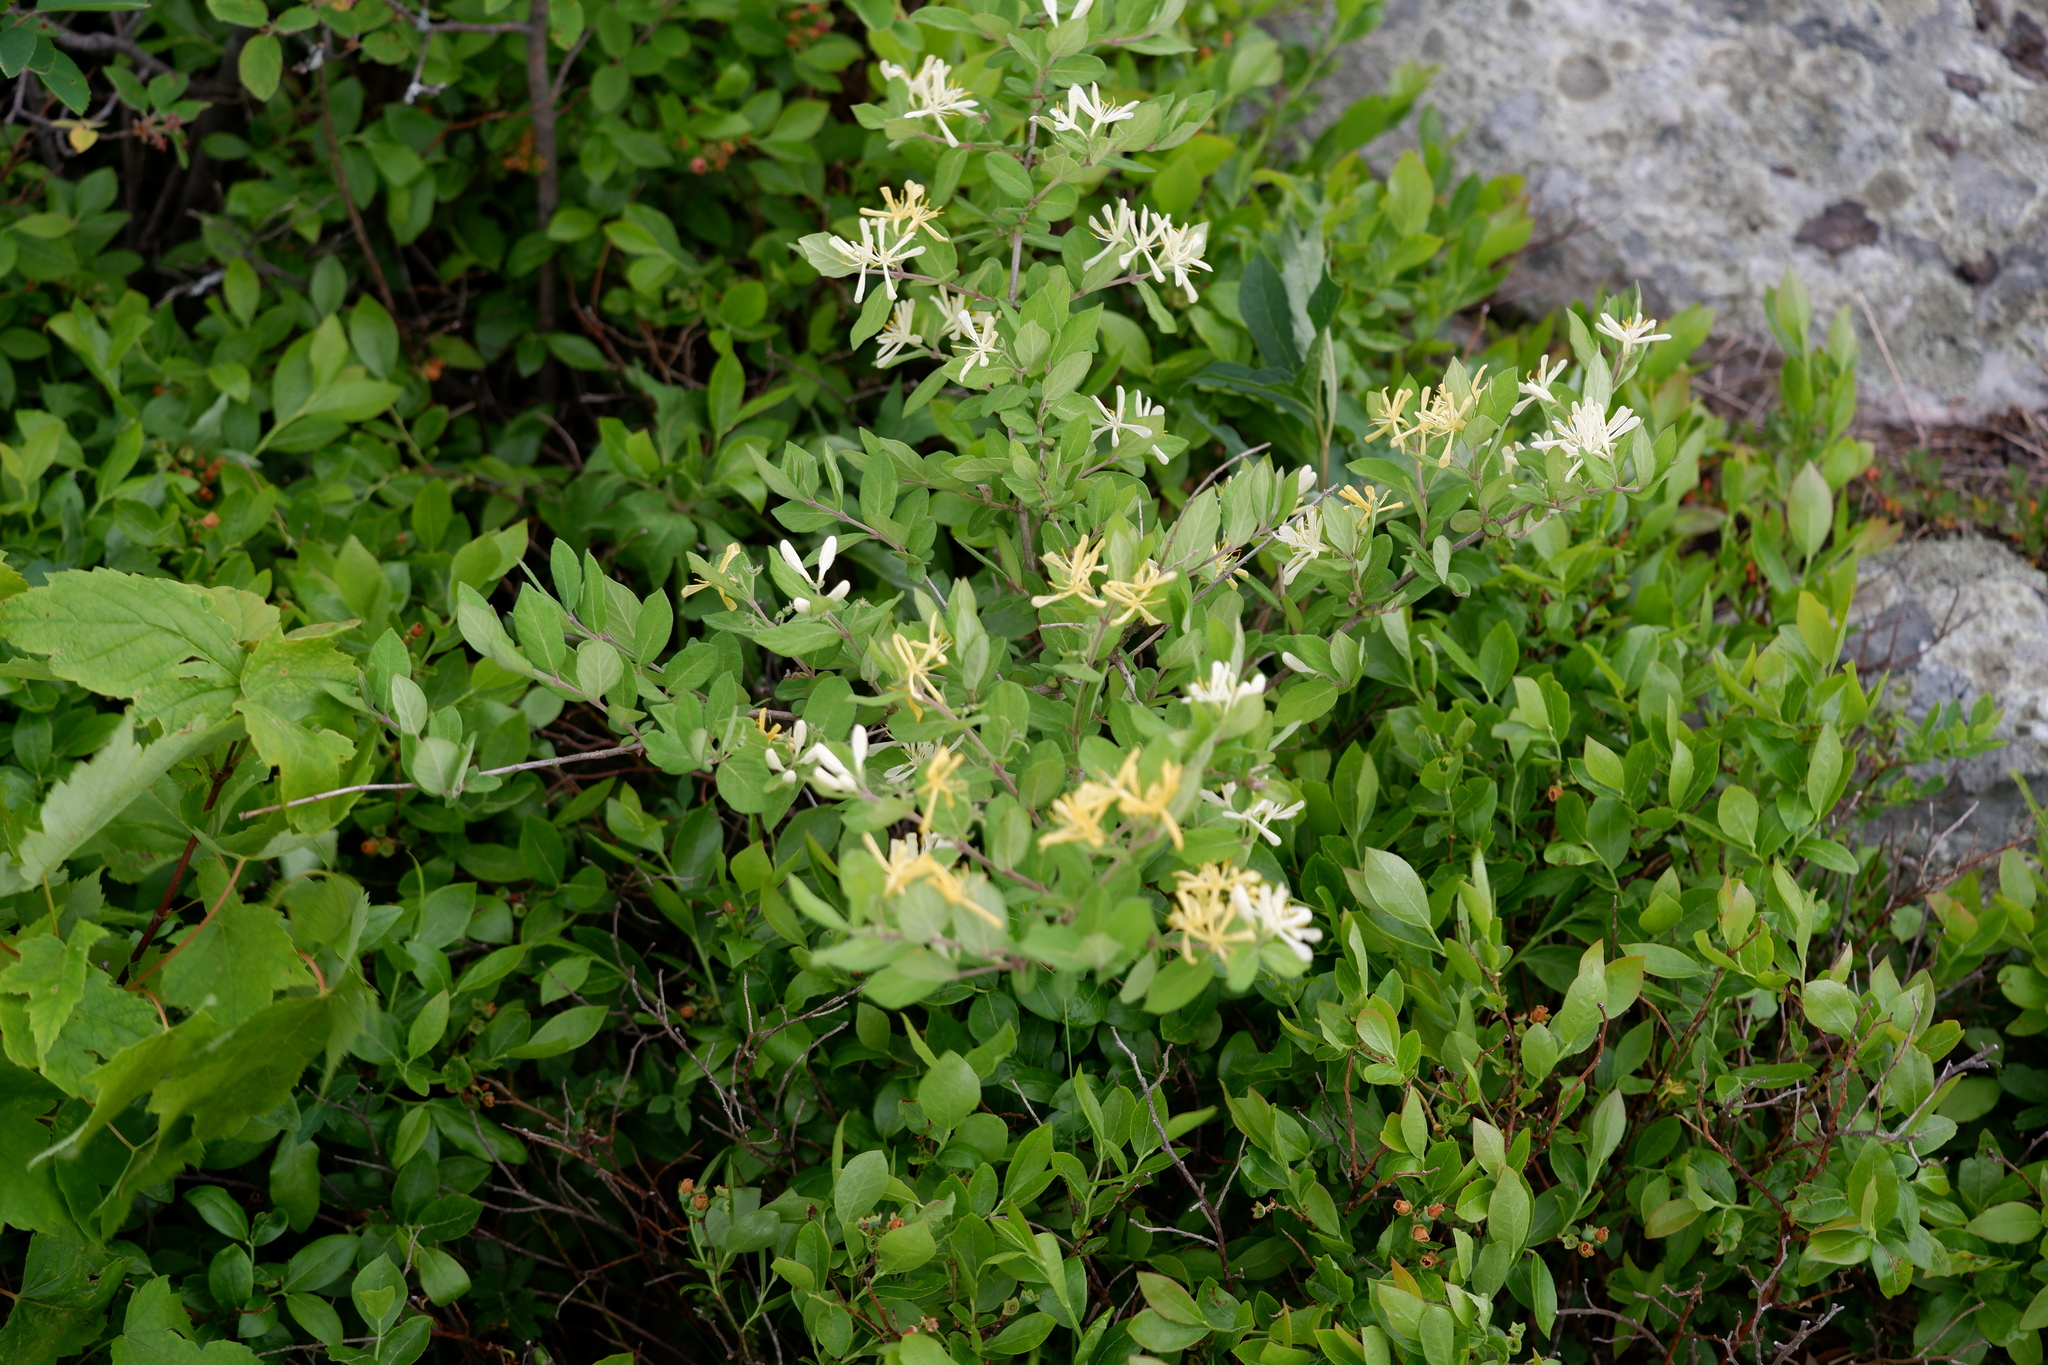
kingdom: Plantae
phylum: Tracheophyta
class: Magnoliopsida
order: Dipsacales
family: Caprifoliaceae
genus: Lonicera
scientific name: Lonicera morrowii
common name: Morrow's honeysuckle
